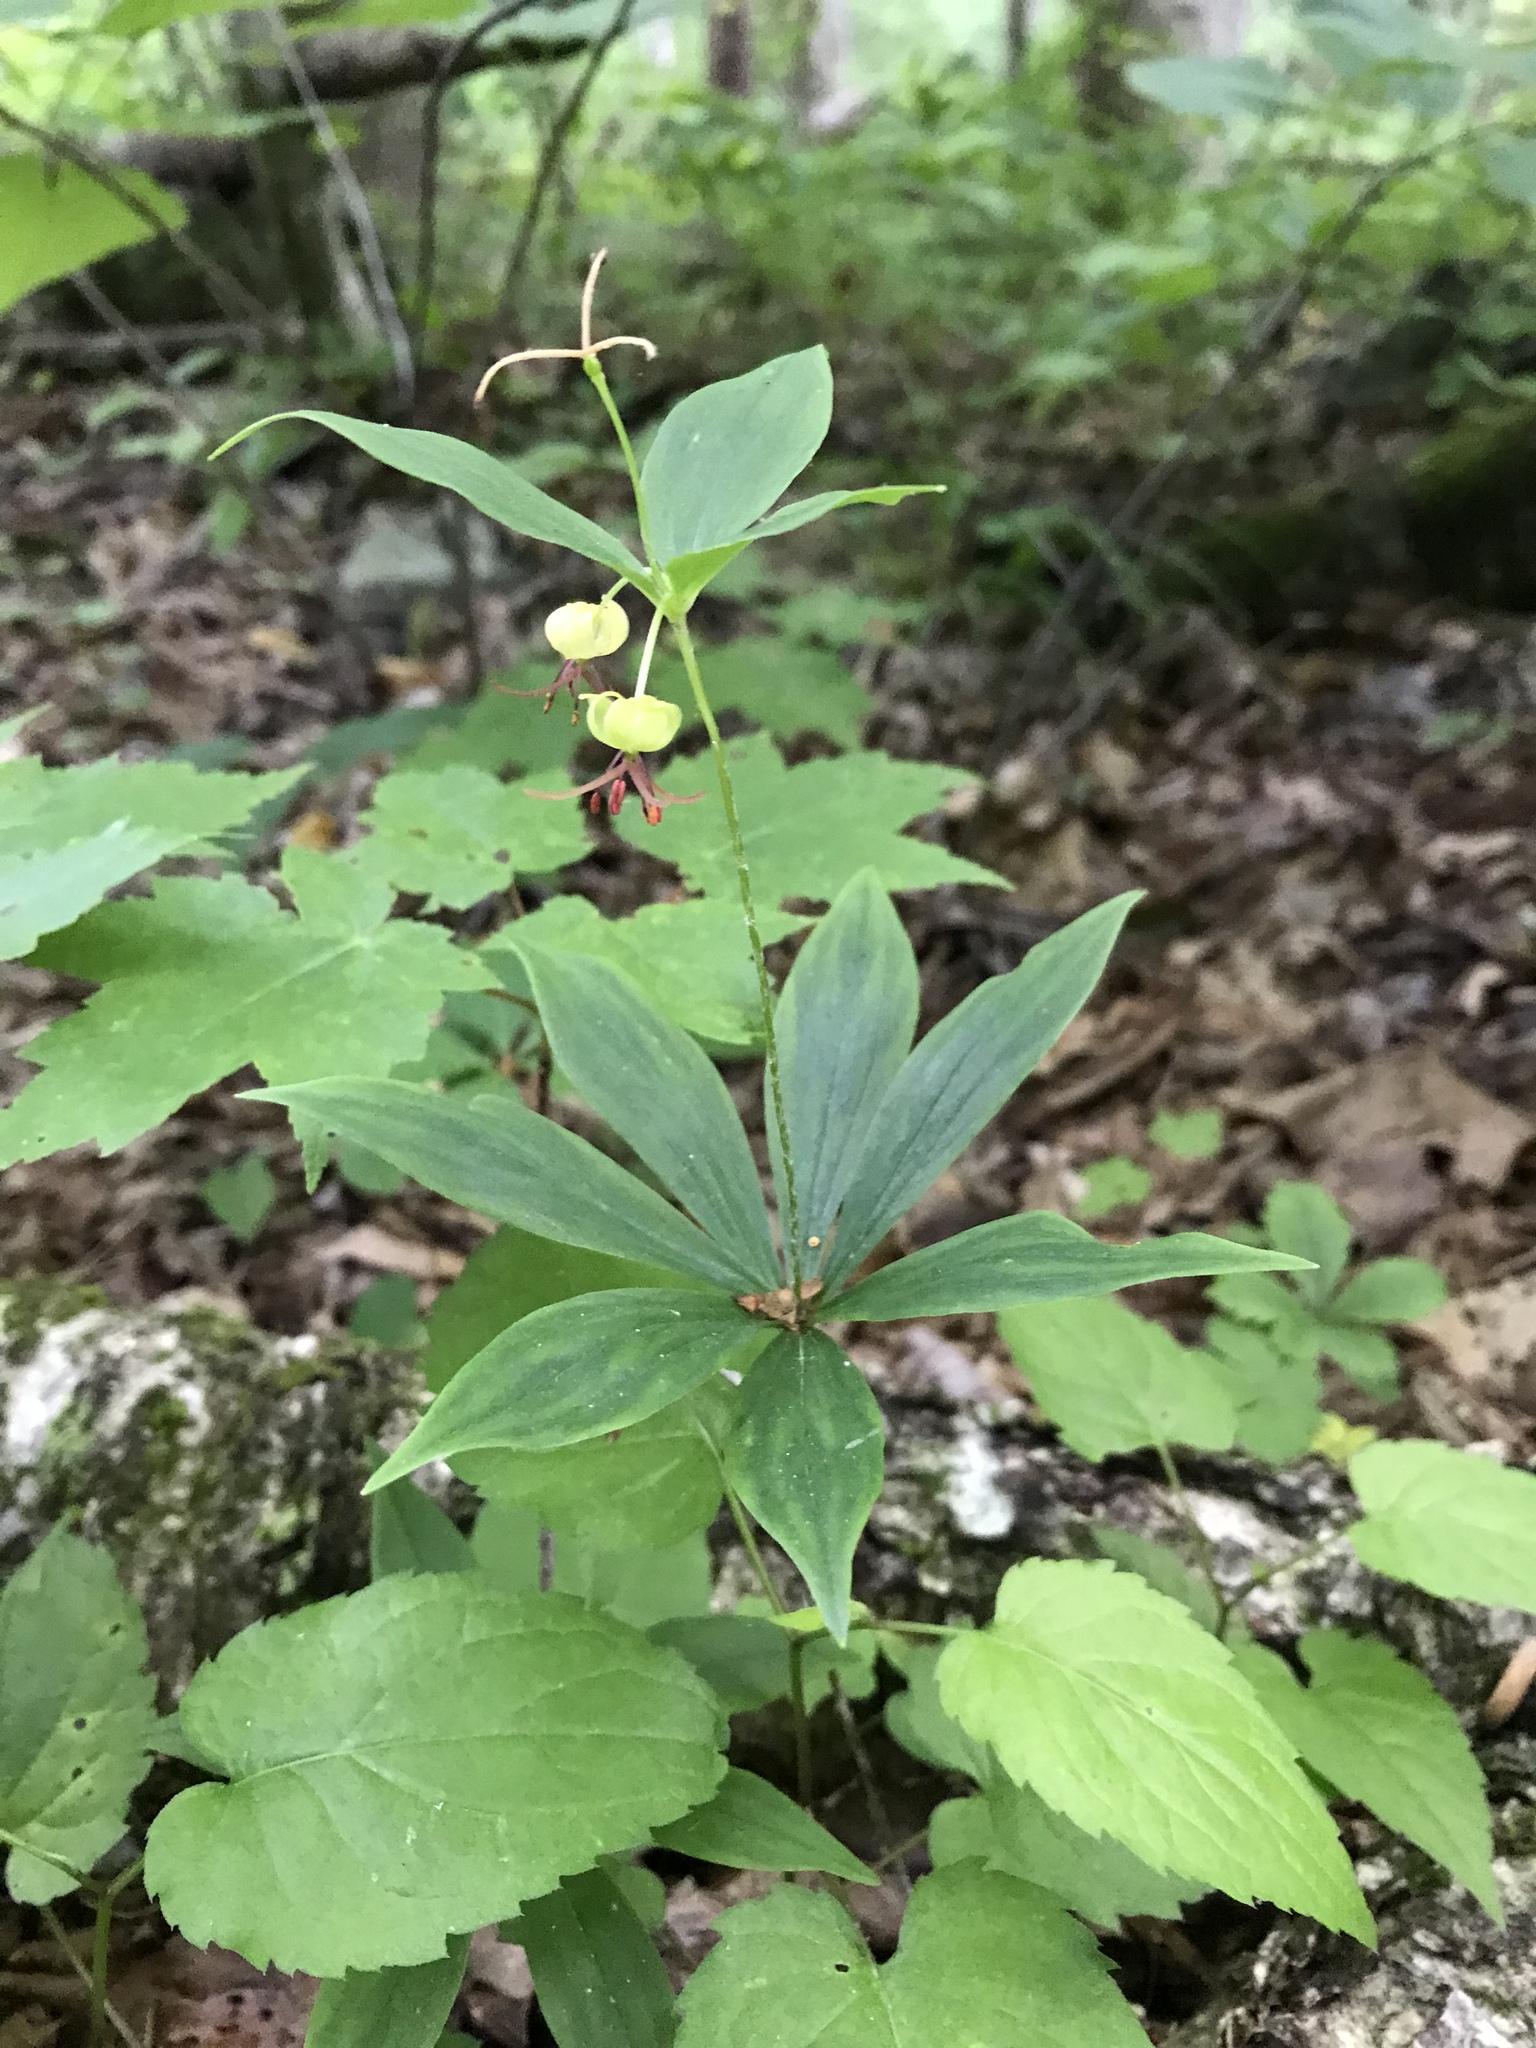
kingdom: Plantae
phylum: Tracheophyta
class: Liliopsida
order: Liliales
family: Liliaceae
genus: Medeola
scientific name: Medeola virginiana
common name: Indian cucumber-root
